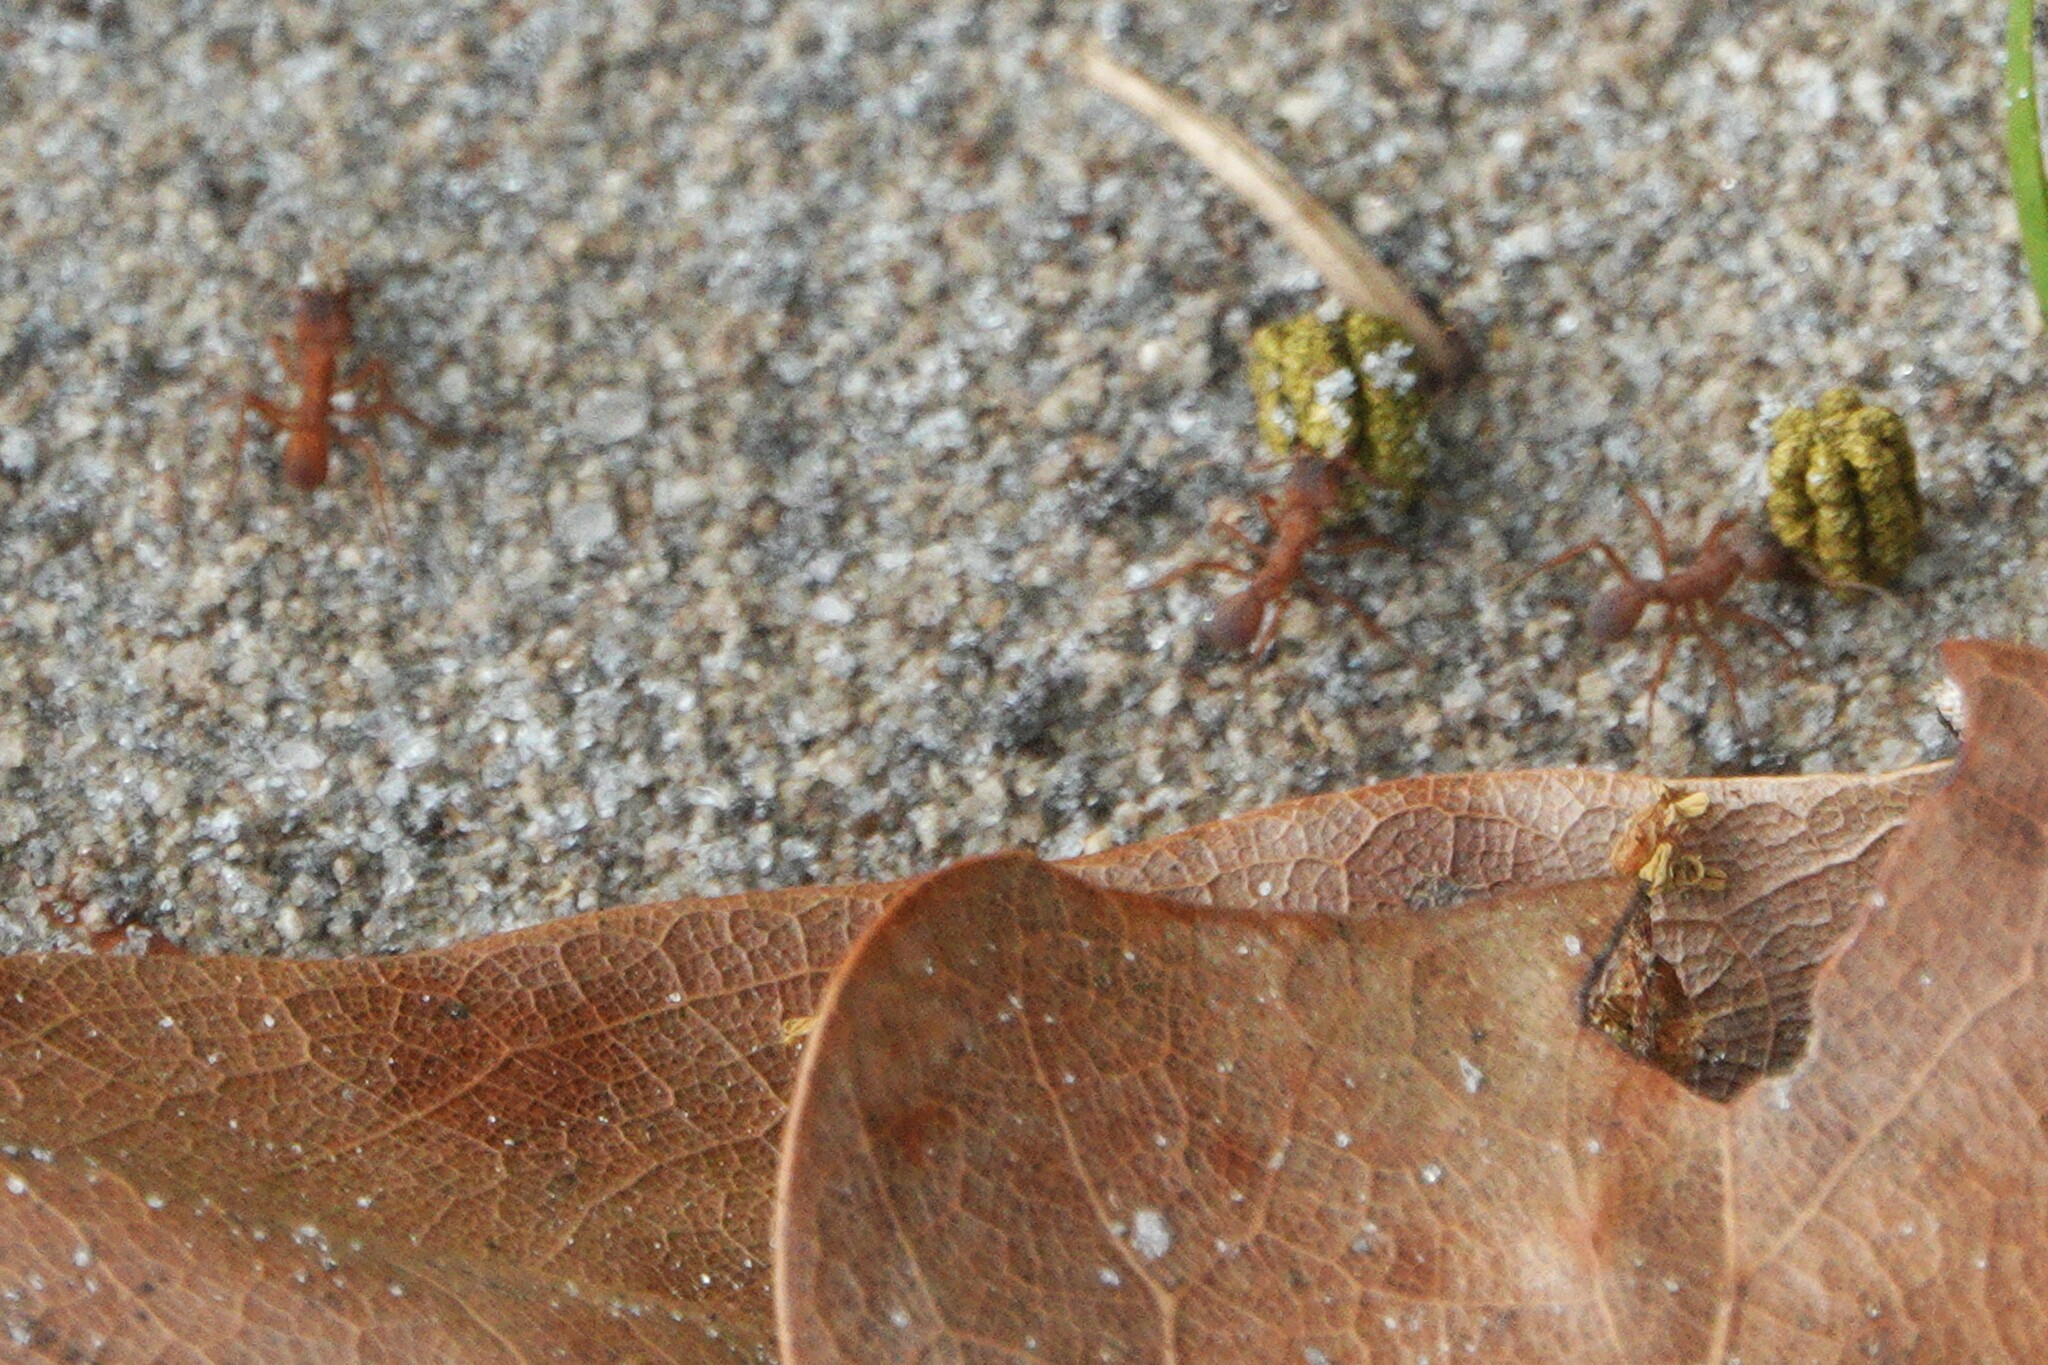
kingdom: Animalia
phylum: Arthropoda
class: Insecta
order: Hymenoptera
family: Formicidae
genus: Trachymyrmex
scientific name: Trachymyrmex septentrionalis
